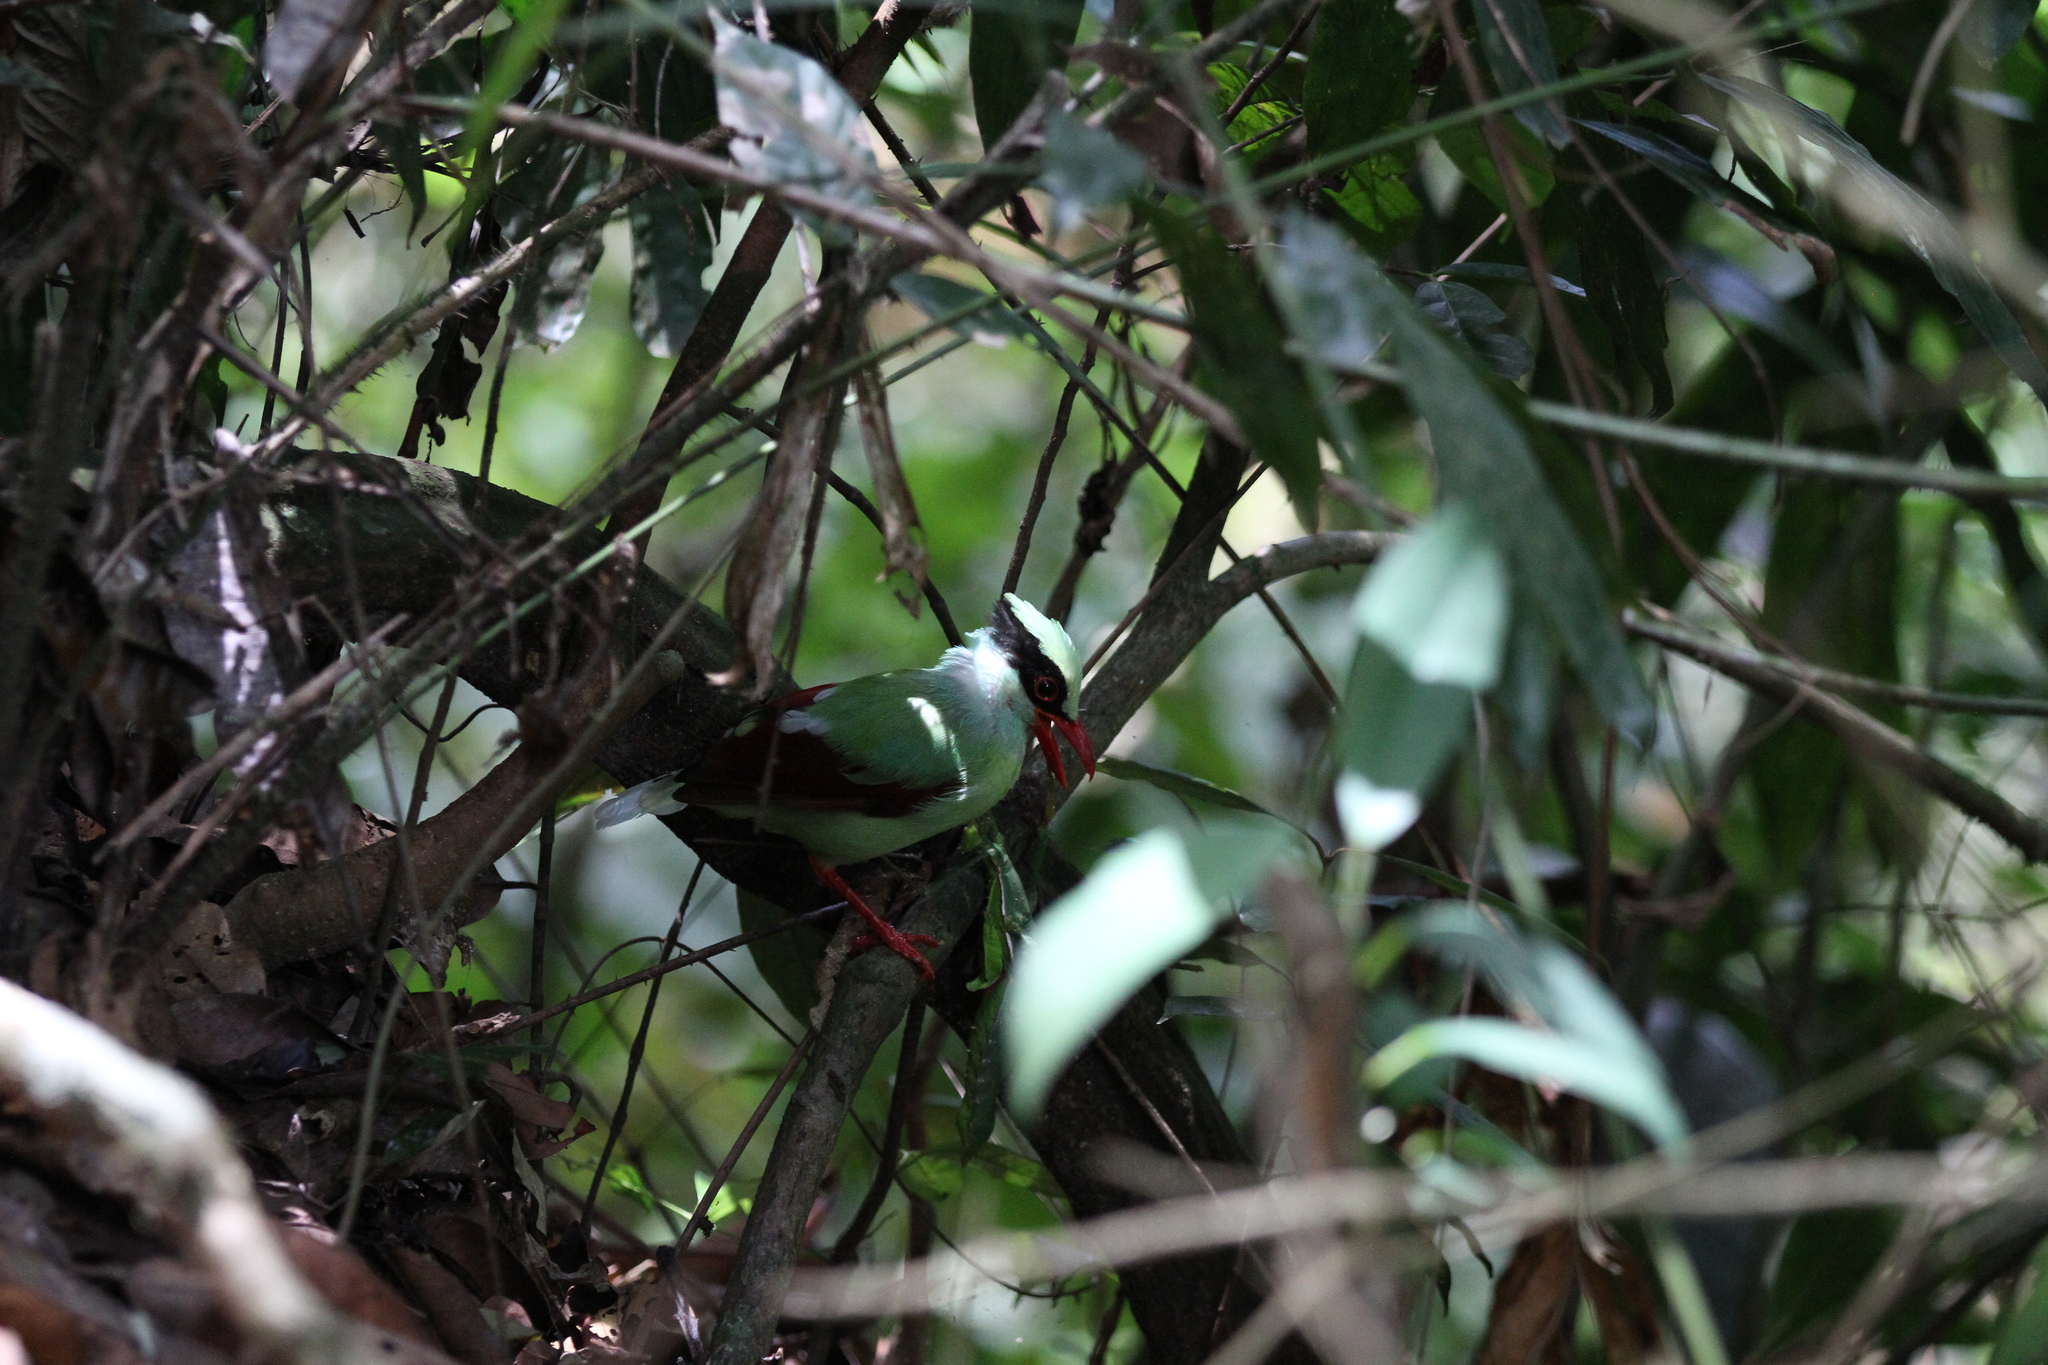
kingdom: Animalia
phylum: Chordata
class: Aves
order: Passeriformes
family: Corvidae
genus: Cissa
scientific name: Cissa chinensis
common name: Common green magpie
